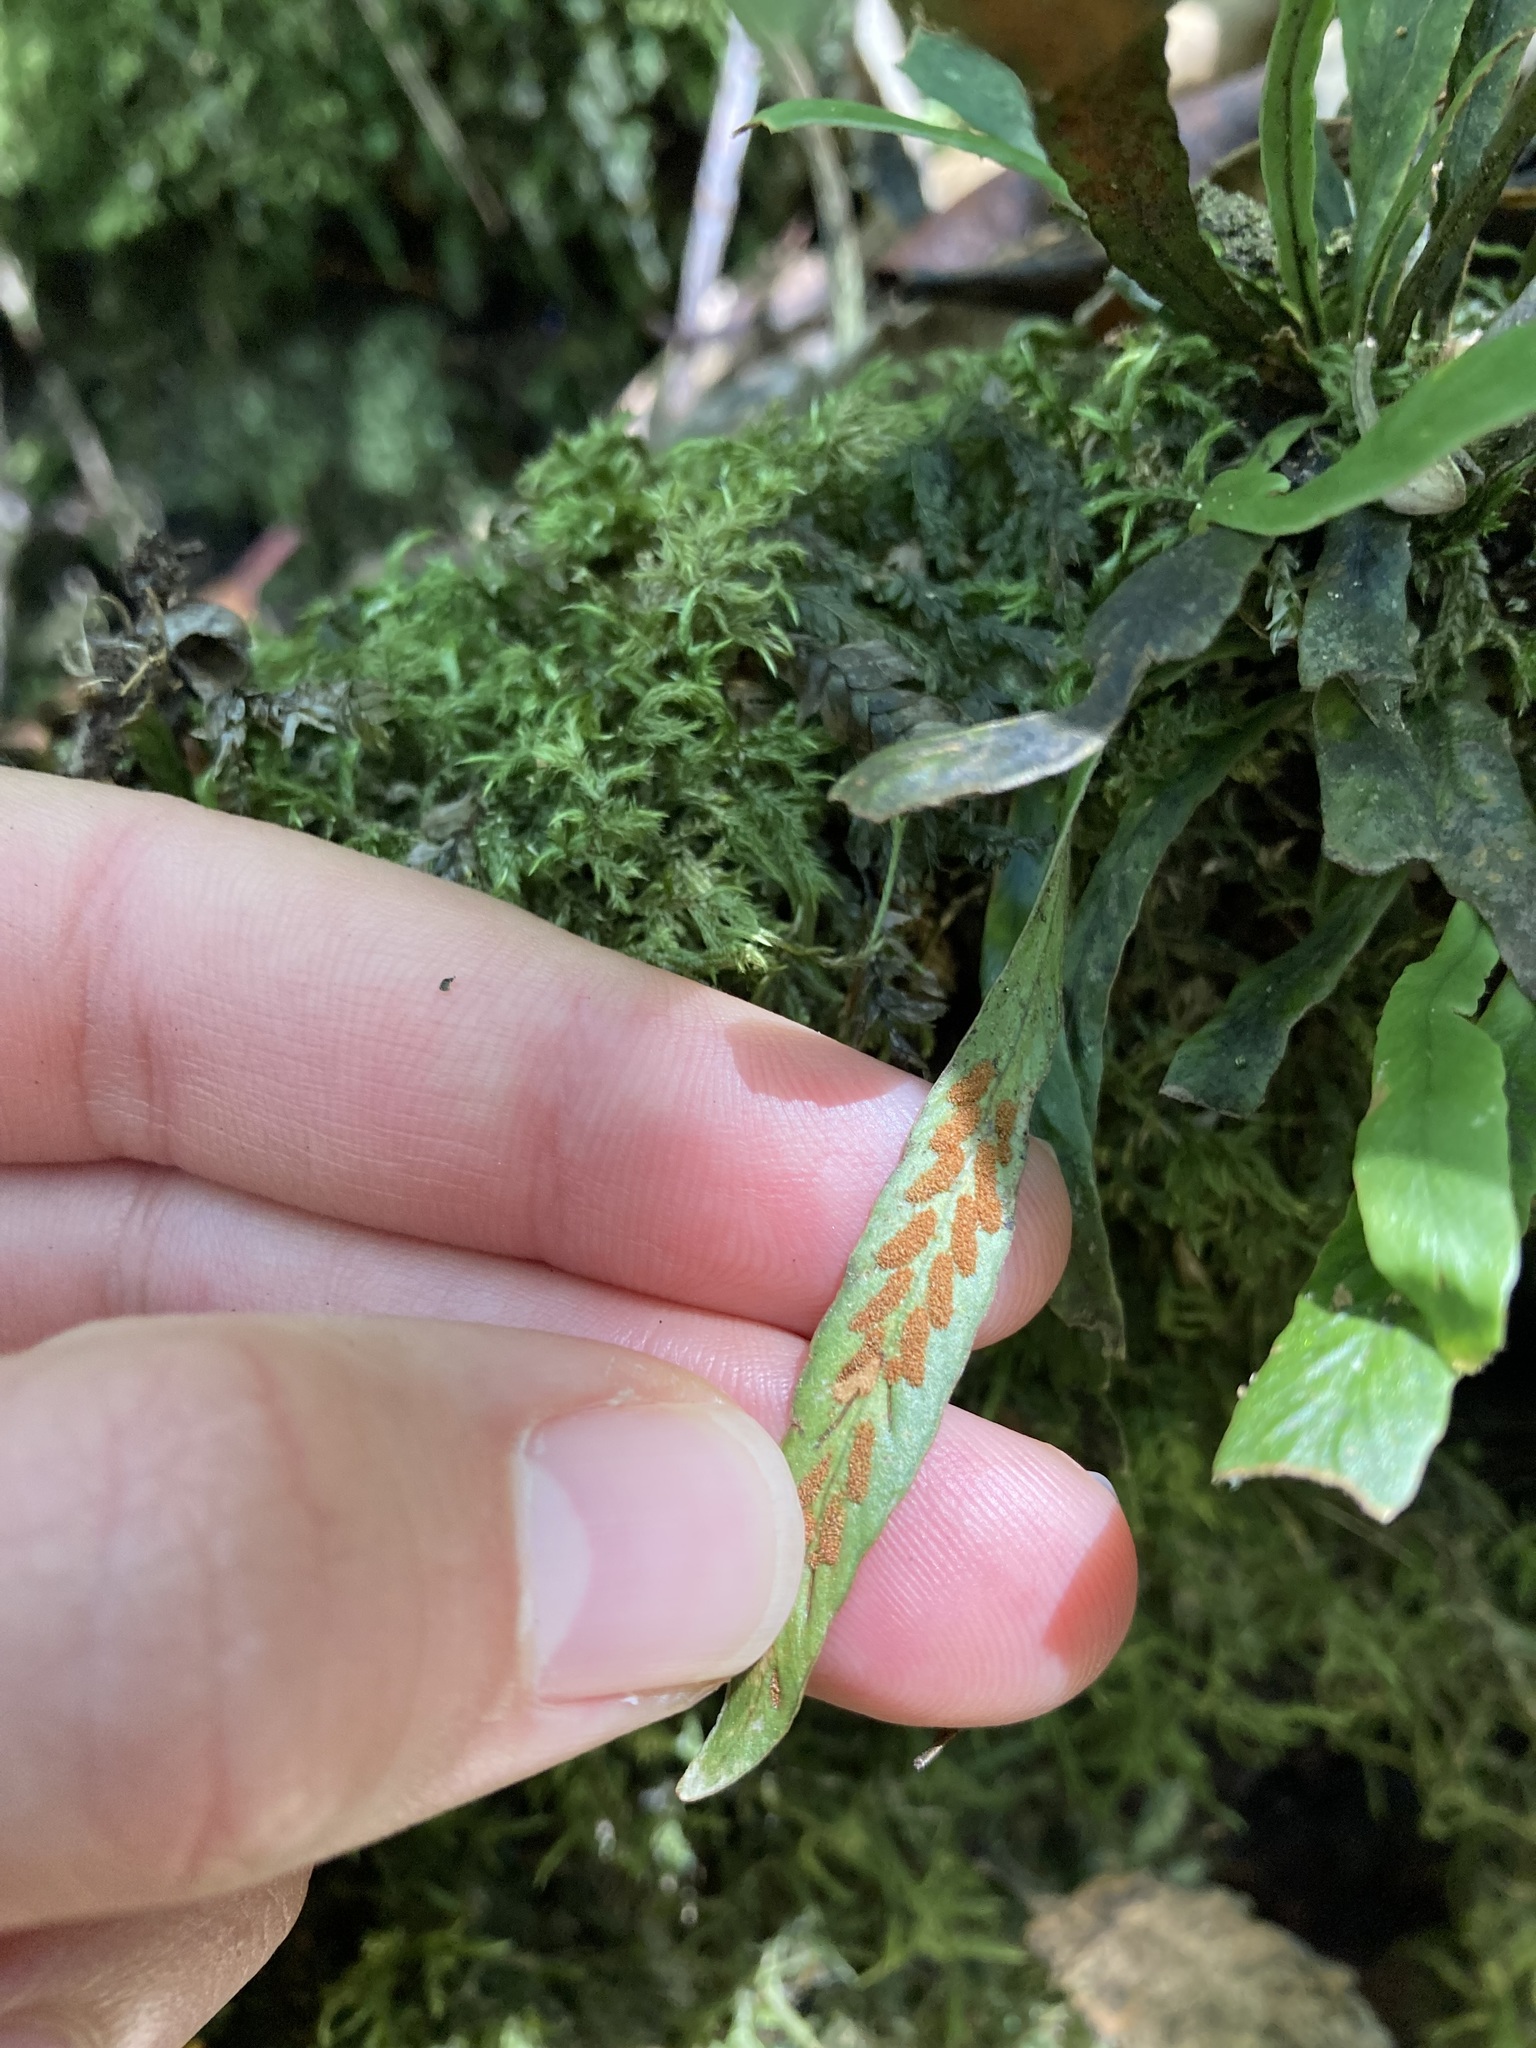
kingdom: Plantae
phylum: Tracheophyta
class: Polypodiopsida
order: Polypodiales
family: Polypodiaceae
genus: Notogrammitis
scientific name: Notogrammitis billardierei
